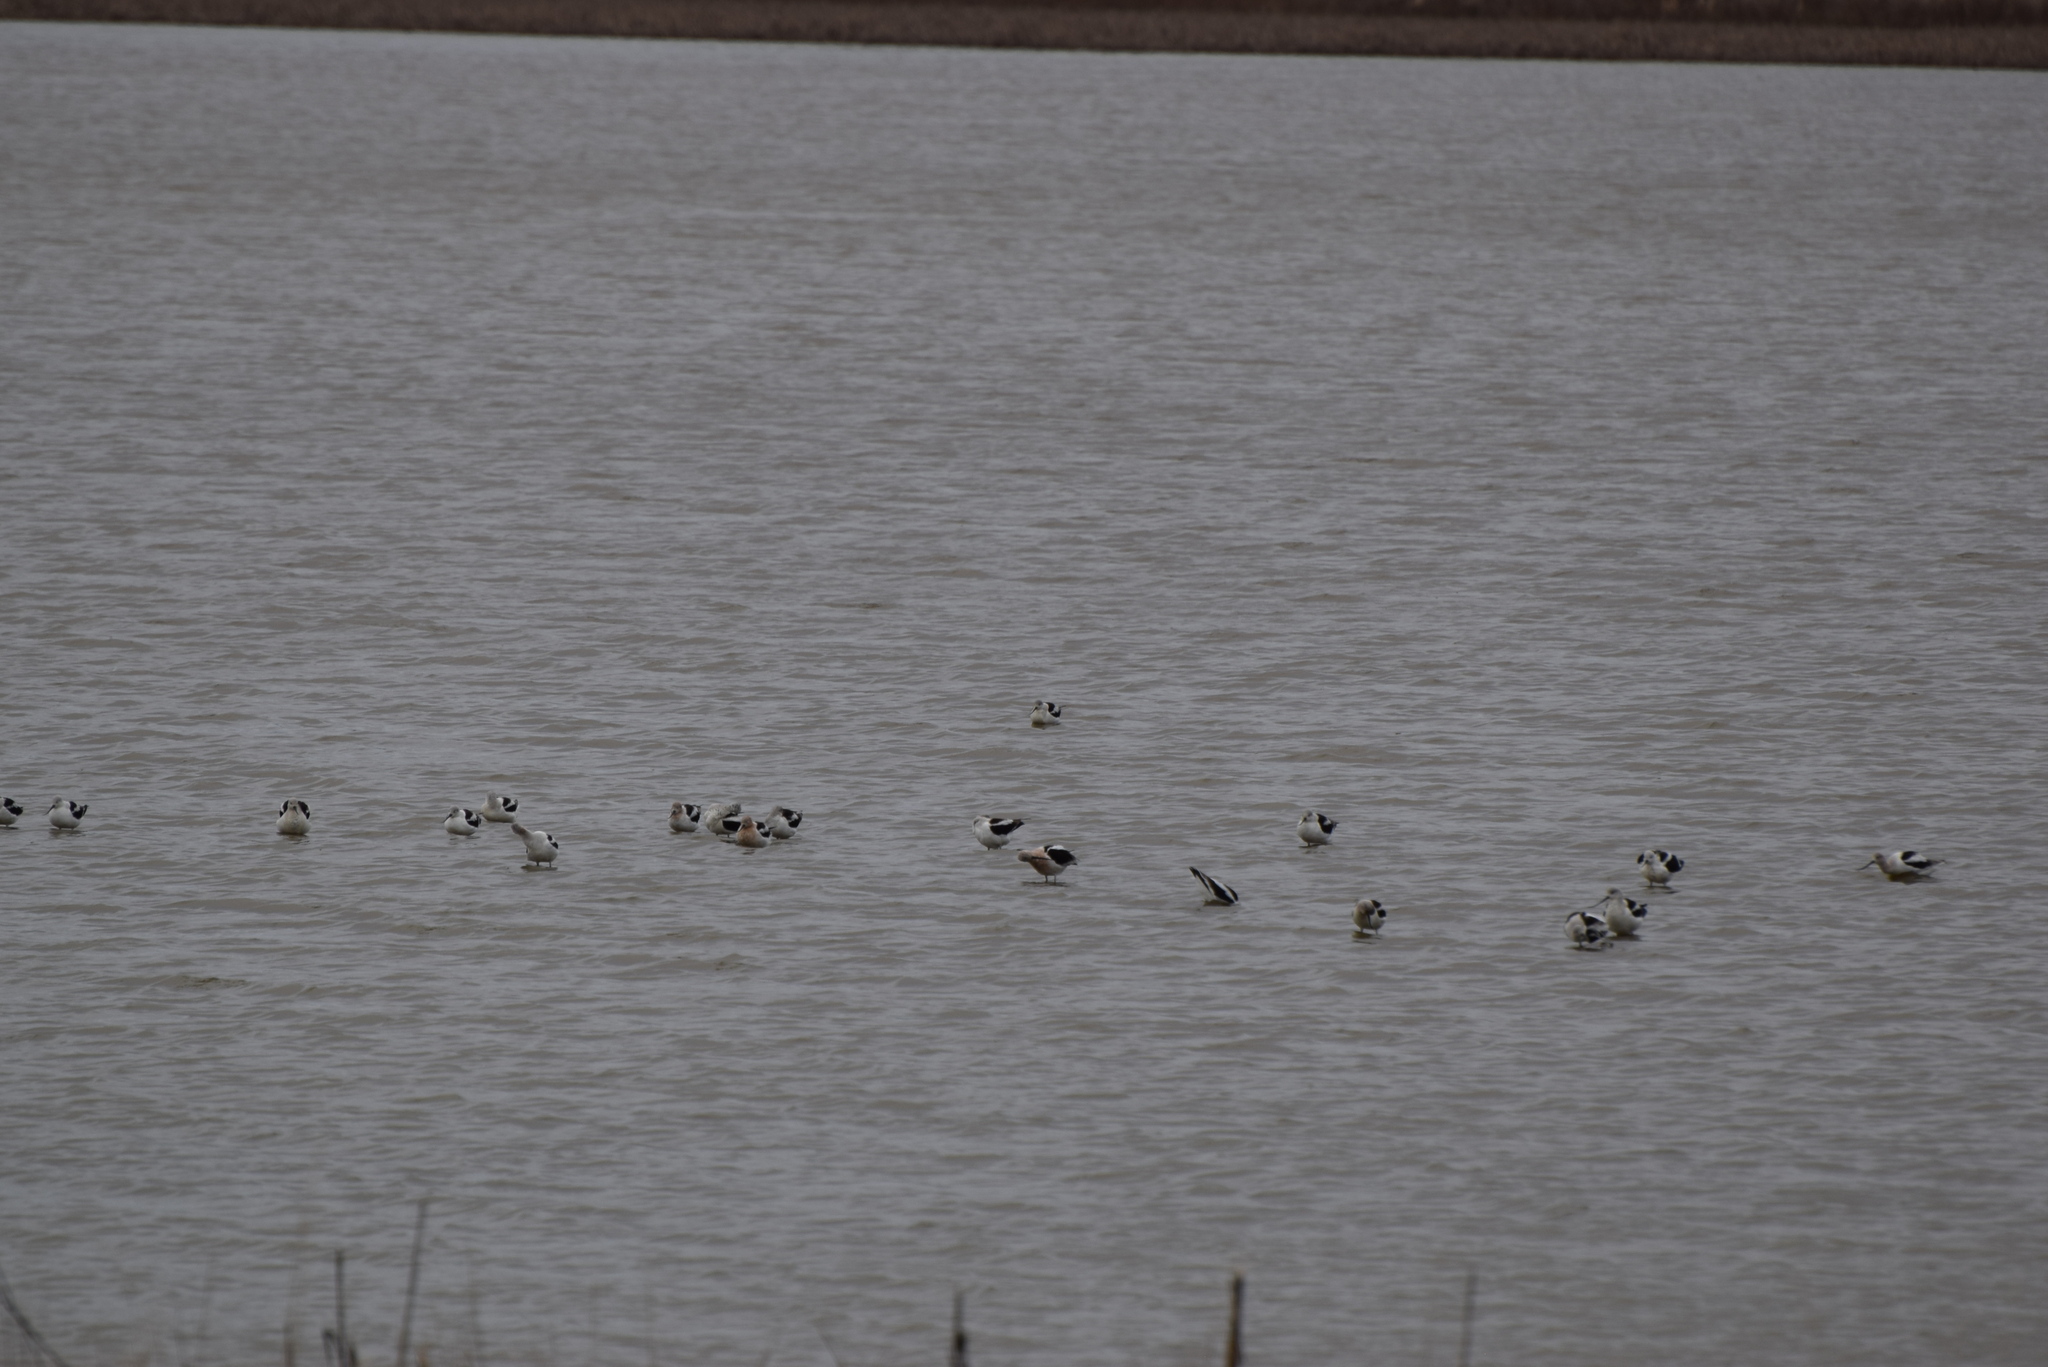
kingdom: Animalia
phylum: Chordata
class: Aves
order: Charadriiformes
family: Recurvirostridae
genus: Recurvirostra
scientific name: Recurvirostra americana
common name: American avocet
